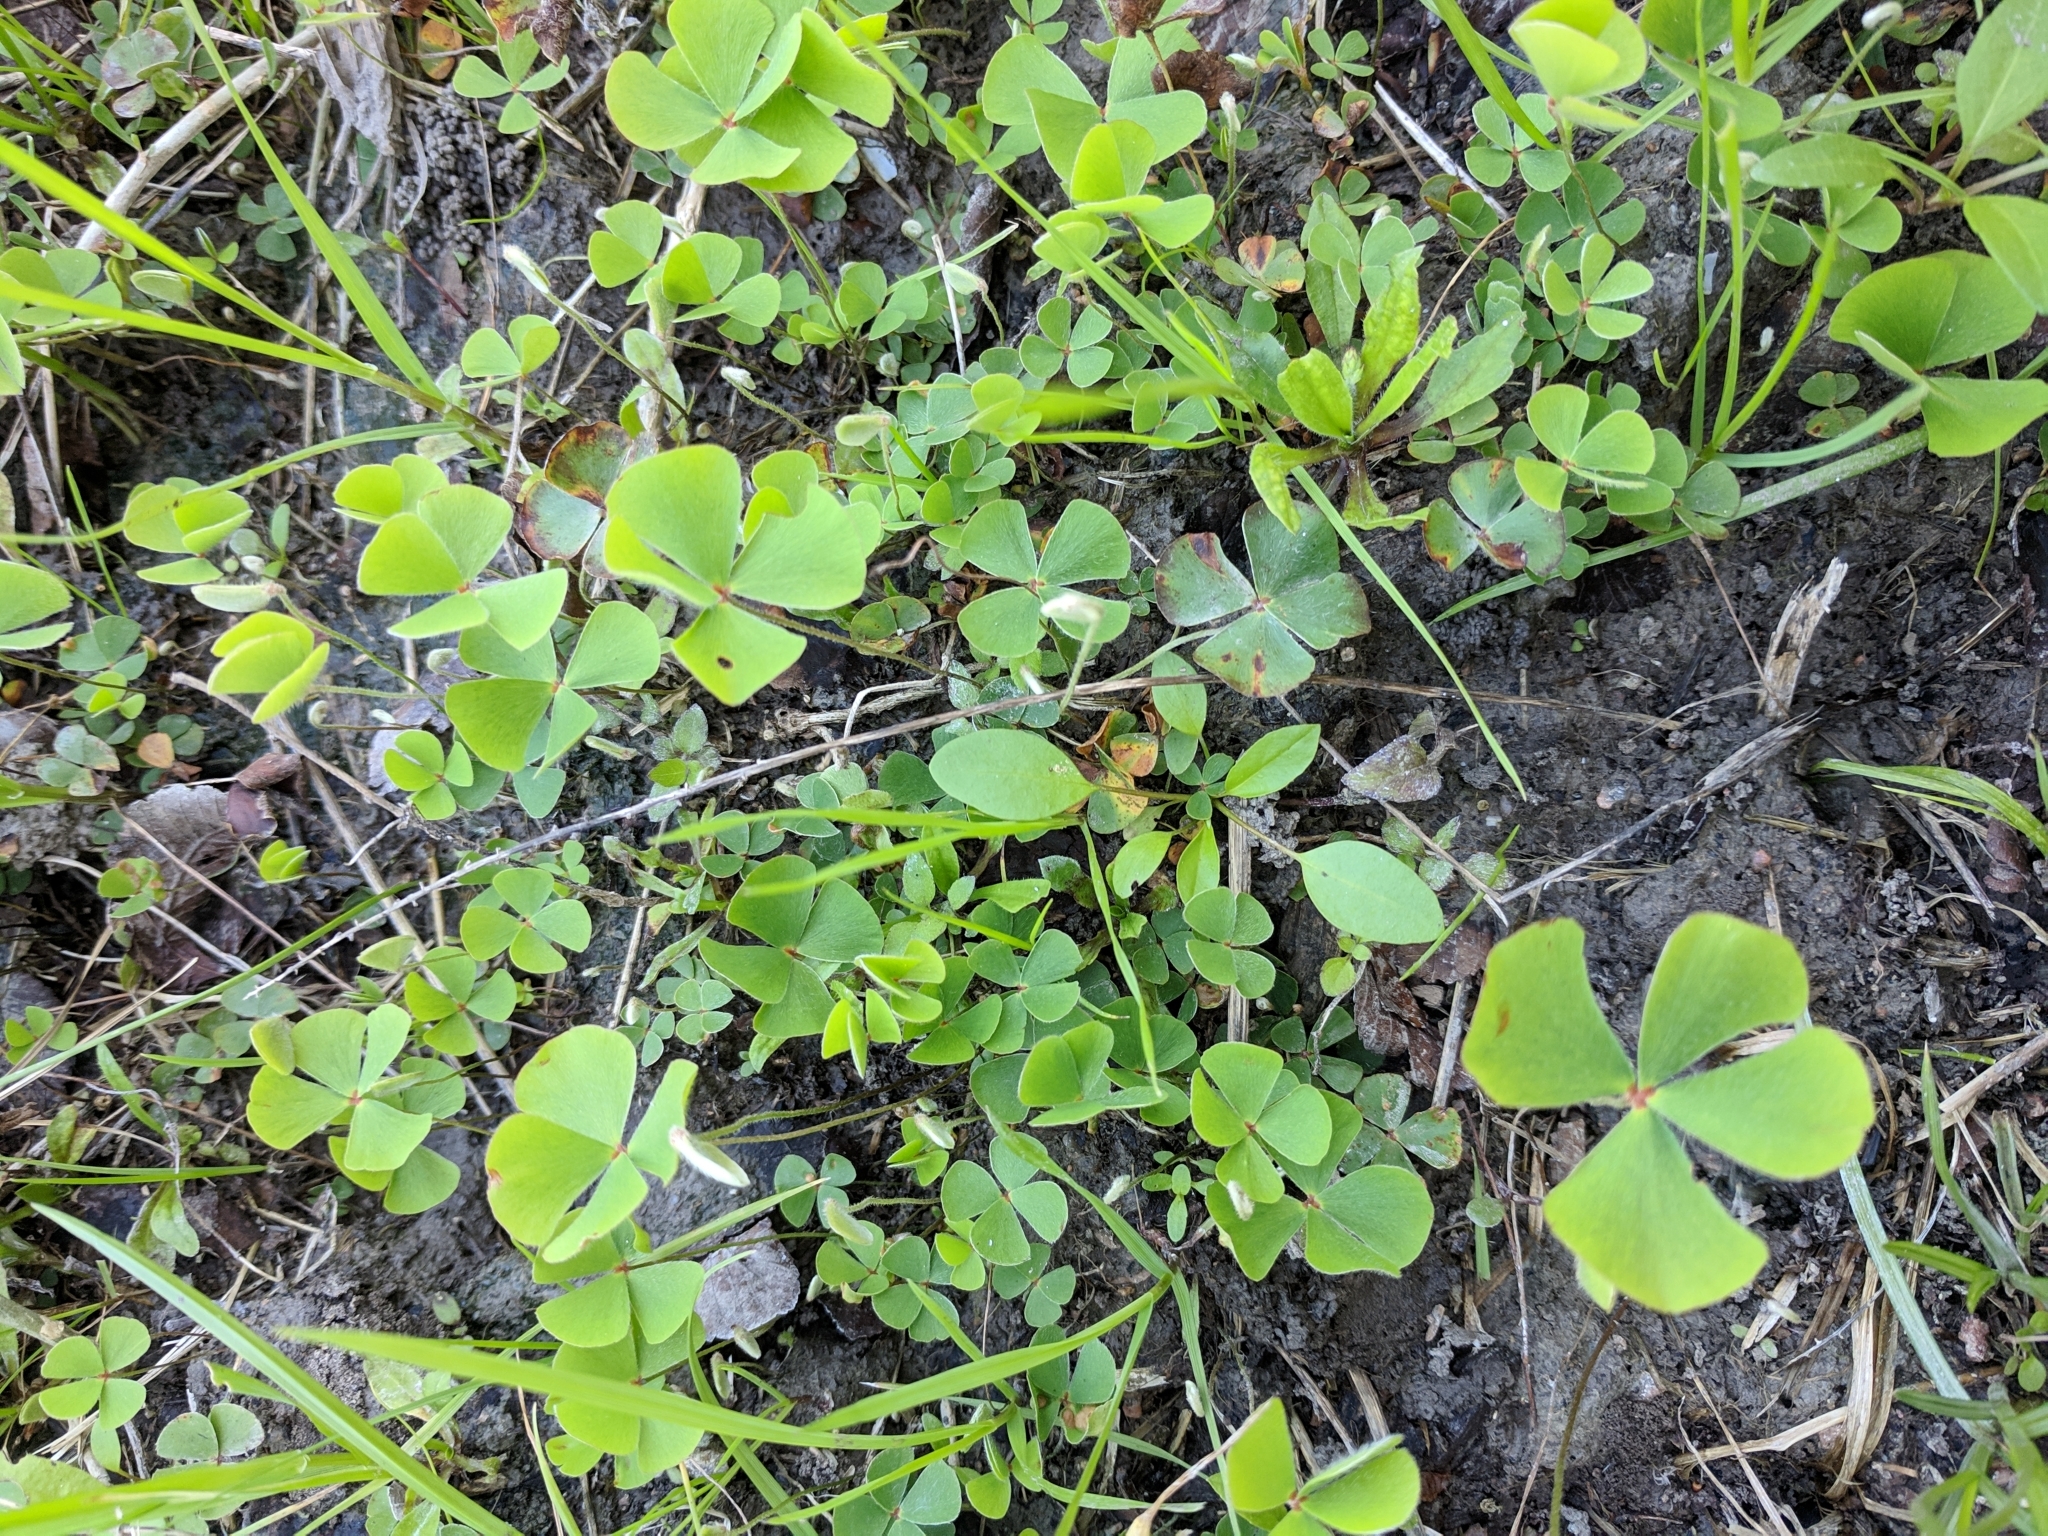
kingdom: Plantae
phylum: Tracheophyta
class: Polypodiopsida
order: Salviniales
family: Marsileaceae
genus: Marsilea
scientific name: Marsilea macropoda
